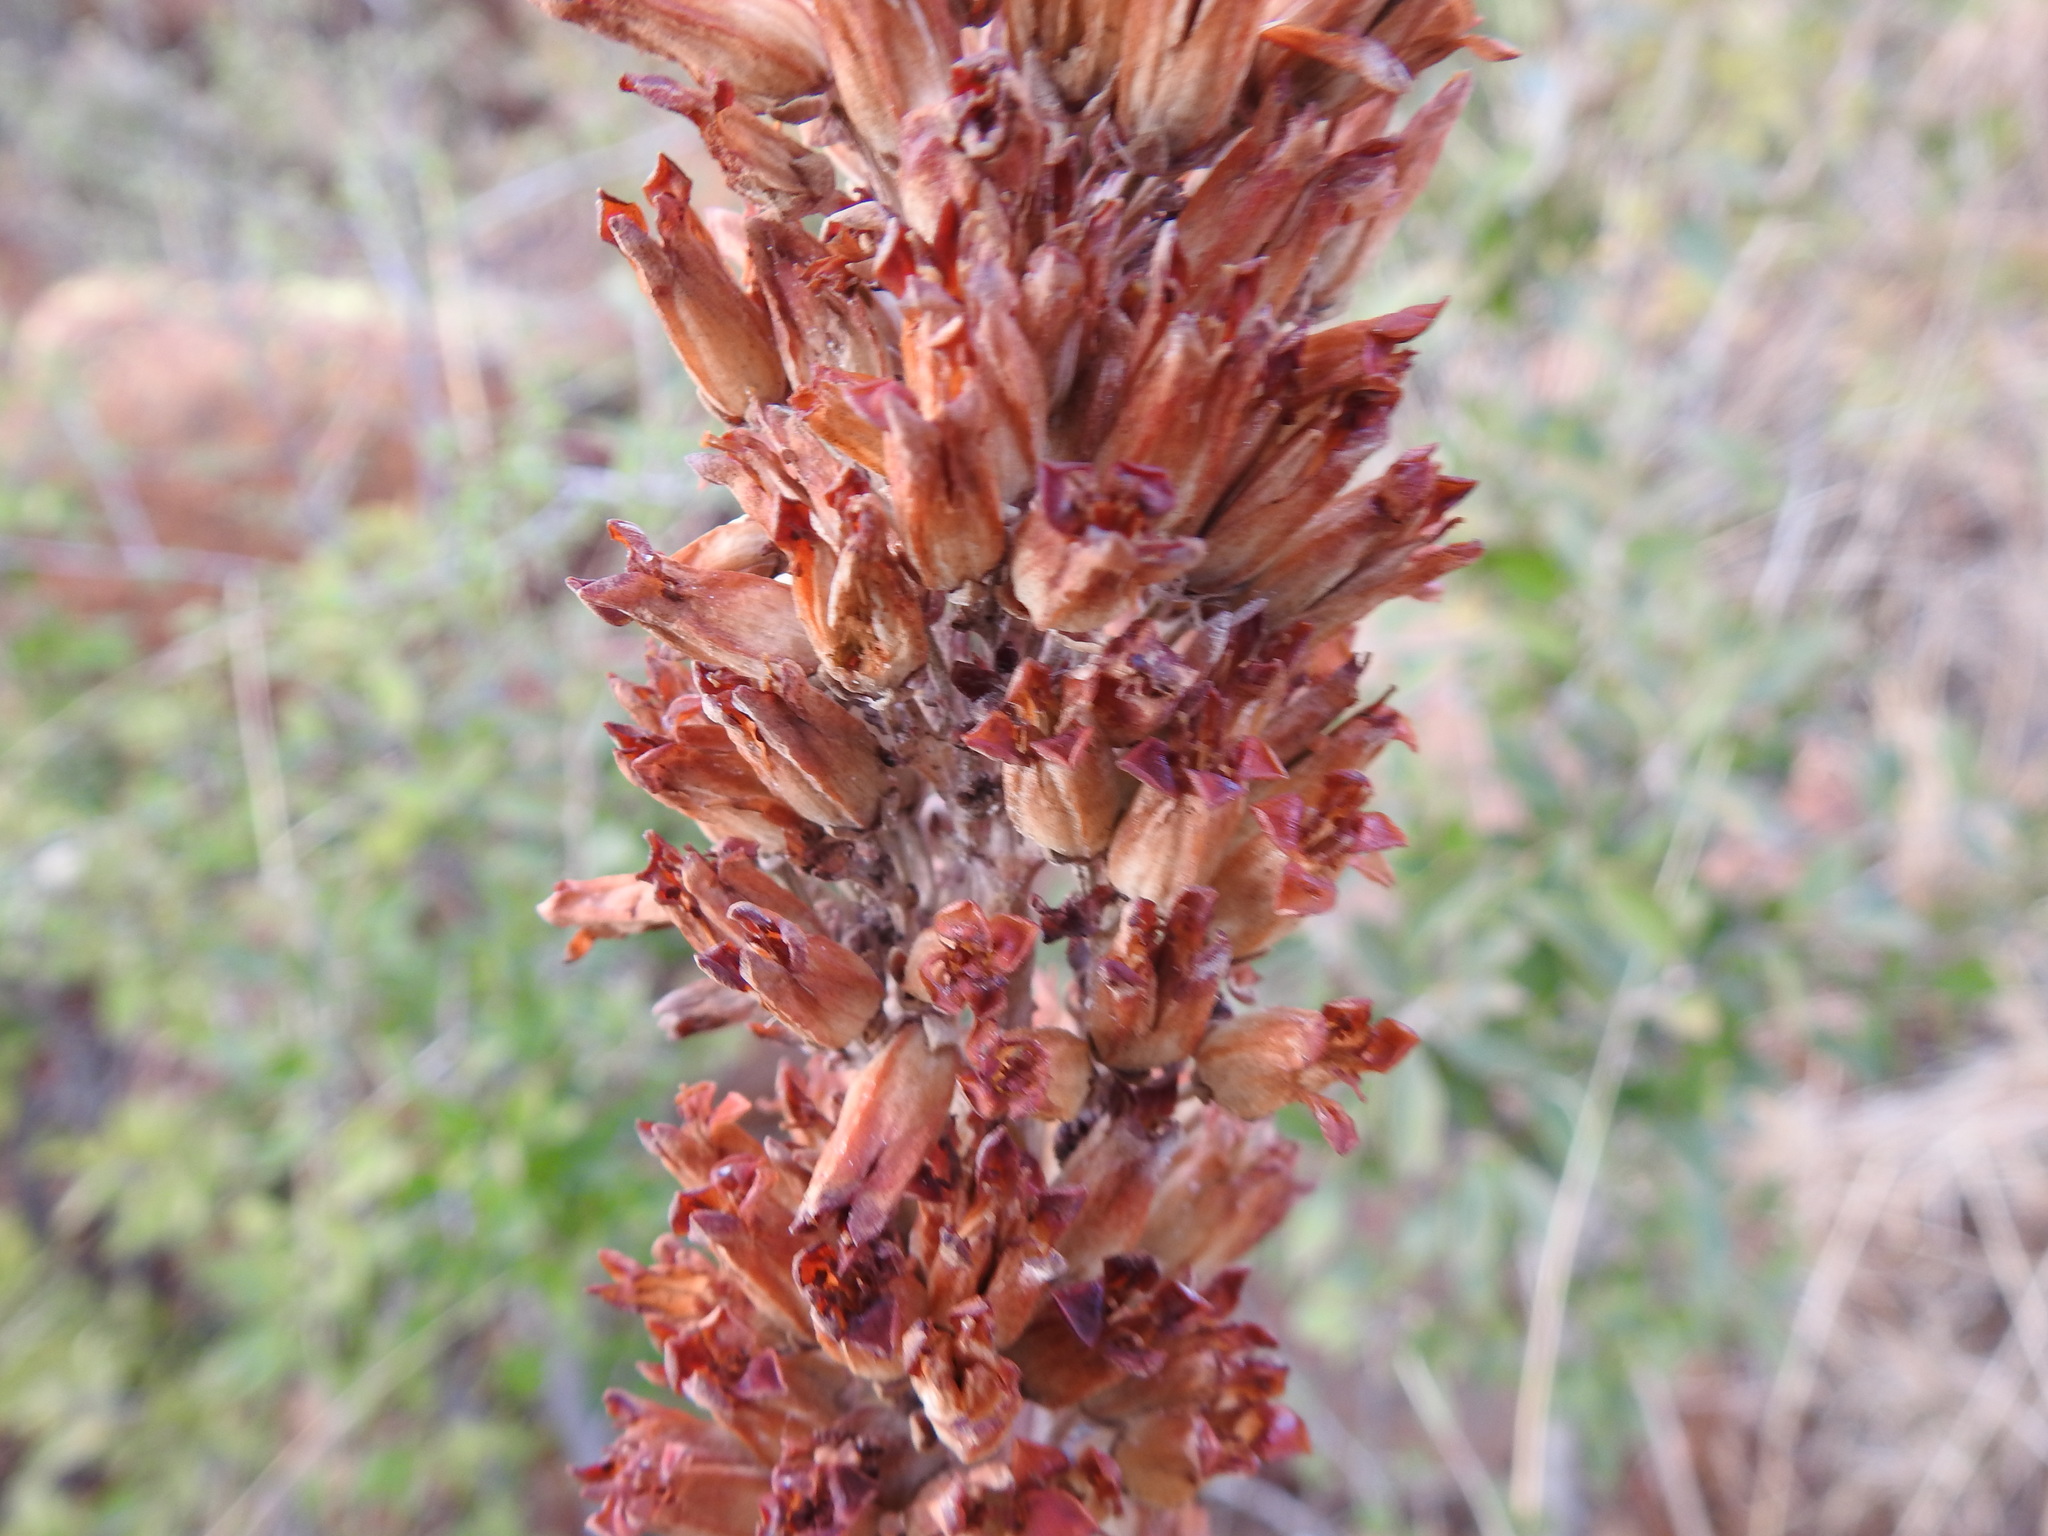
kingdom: Plantae
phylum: Tracheophyta
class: Magnoliopsida
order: Saxifragales
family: Crassulaceae
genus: Kalanchoe
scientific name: Kalanchoe thyrsiflora
